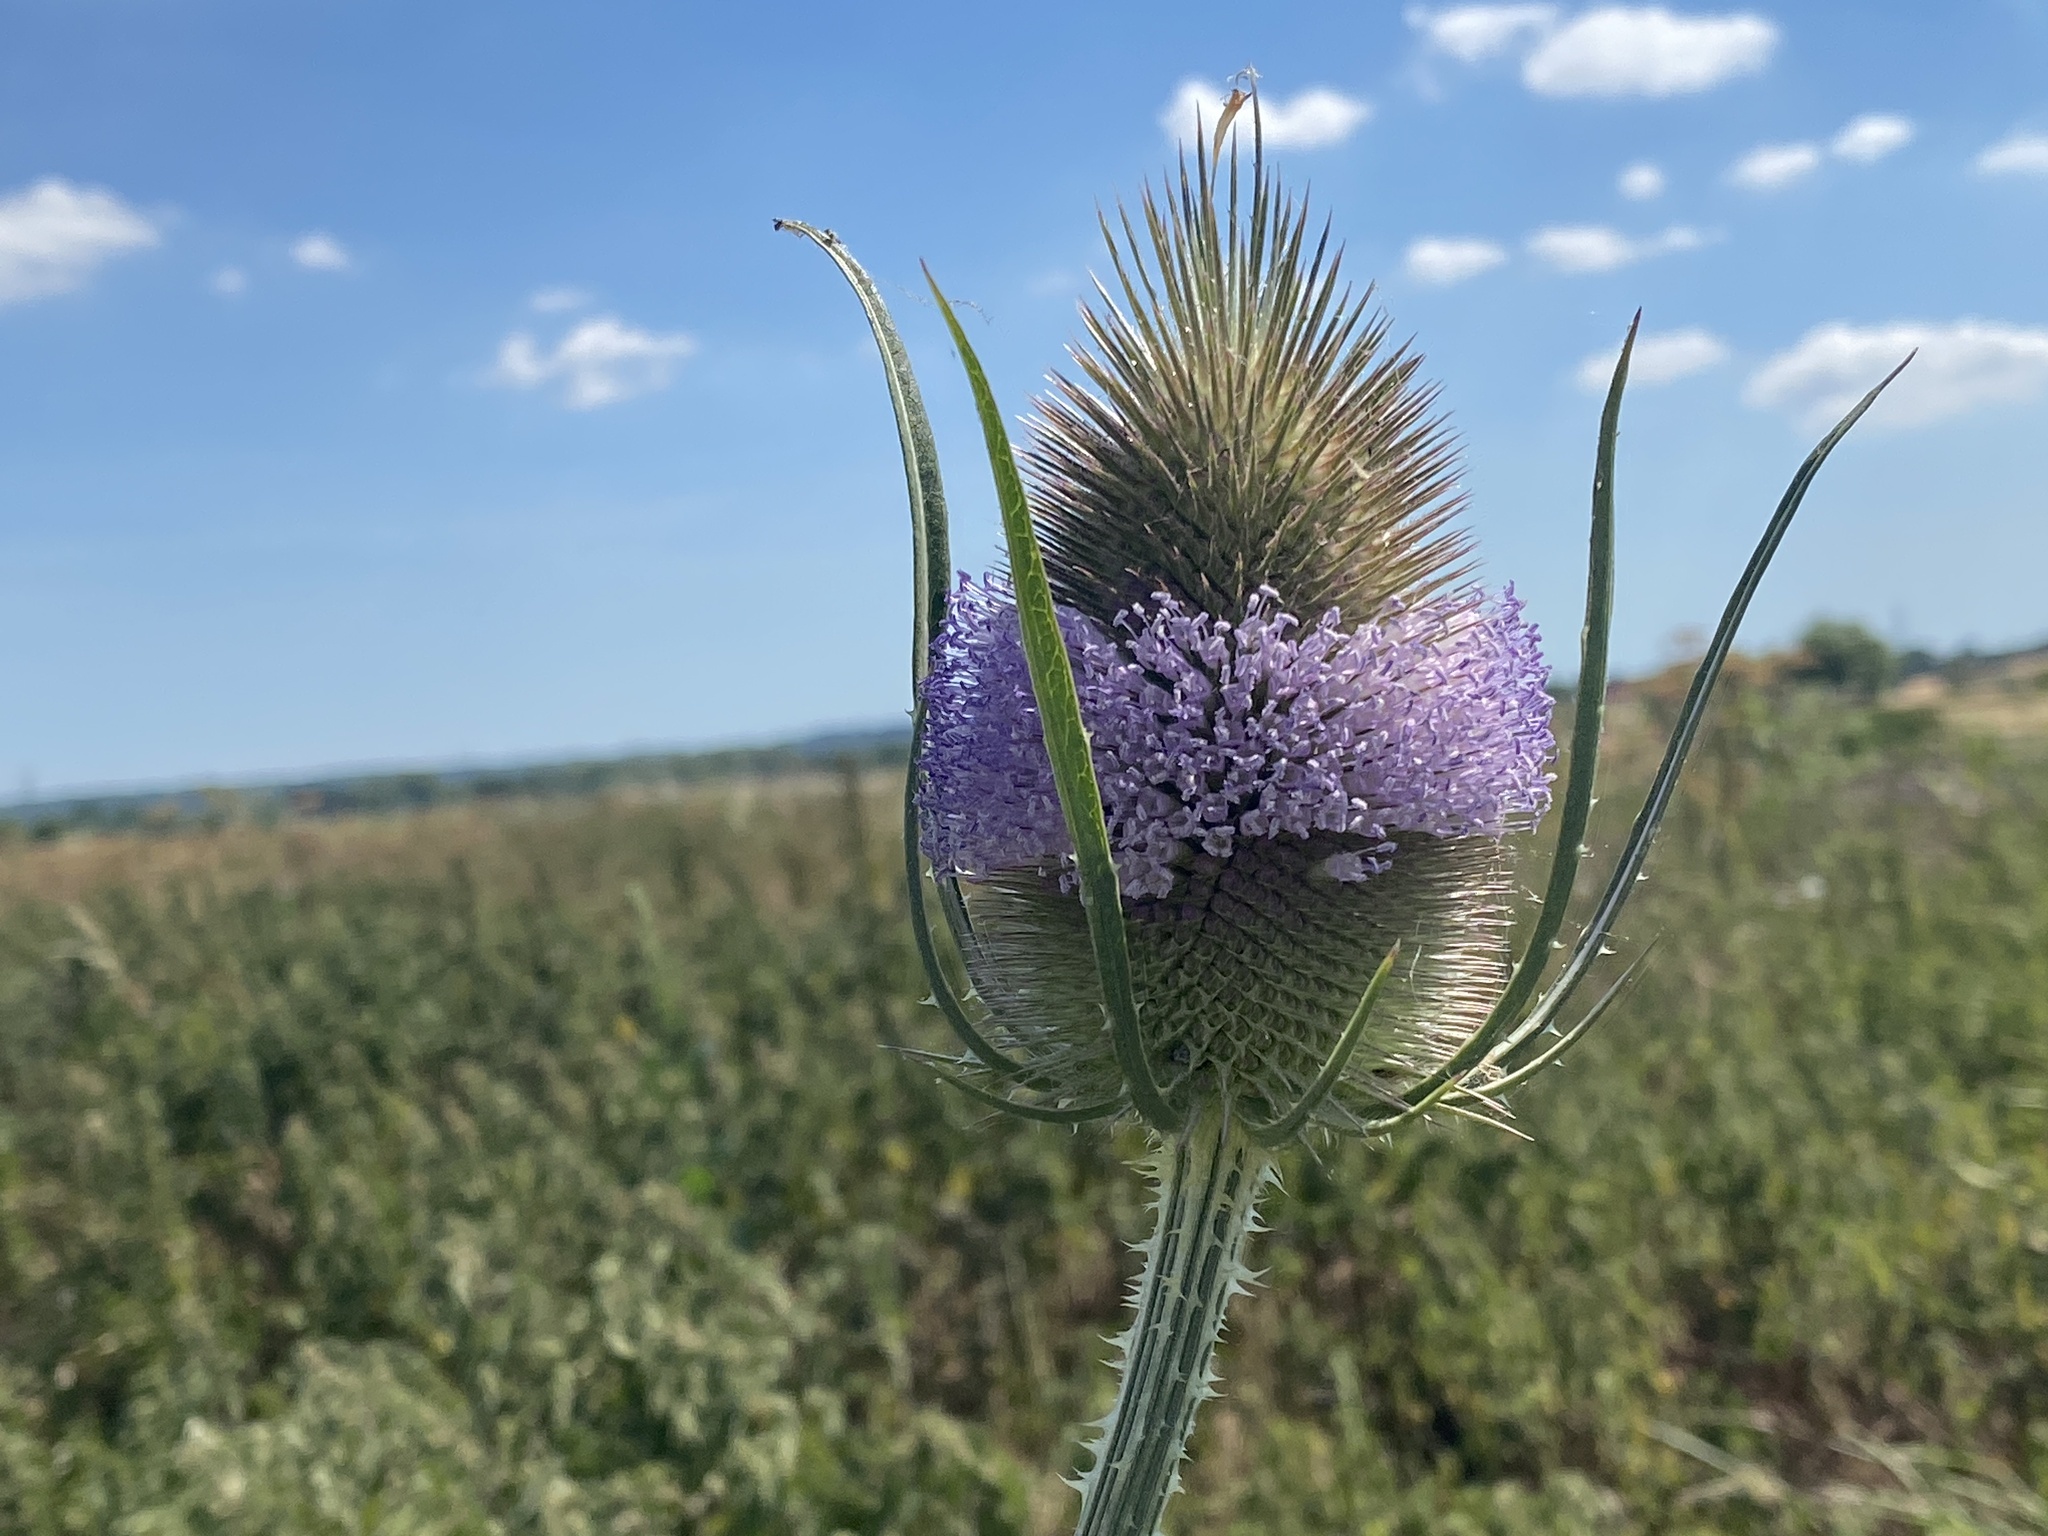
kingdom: Plantae
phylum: Tracheophyta
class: Magnoliopsida
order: Dipsacales
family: Caprifoliaceae
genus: Dipsacus
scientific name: Dipsacus fullonum
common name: Teasel
